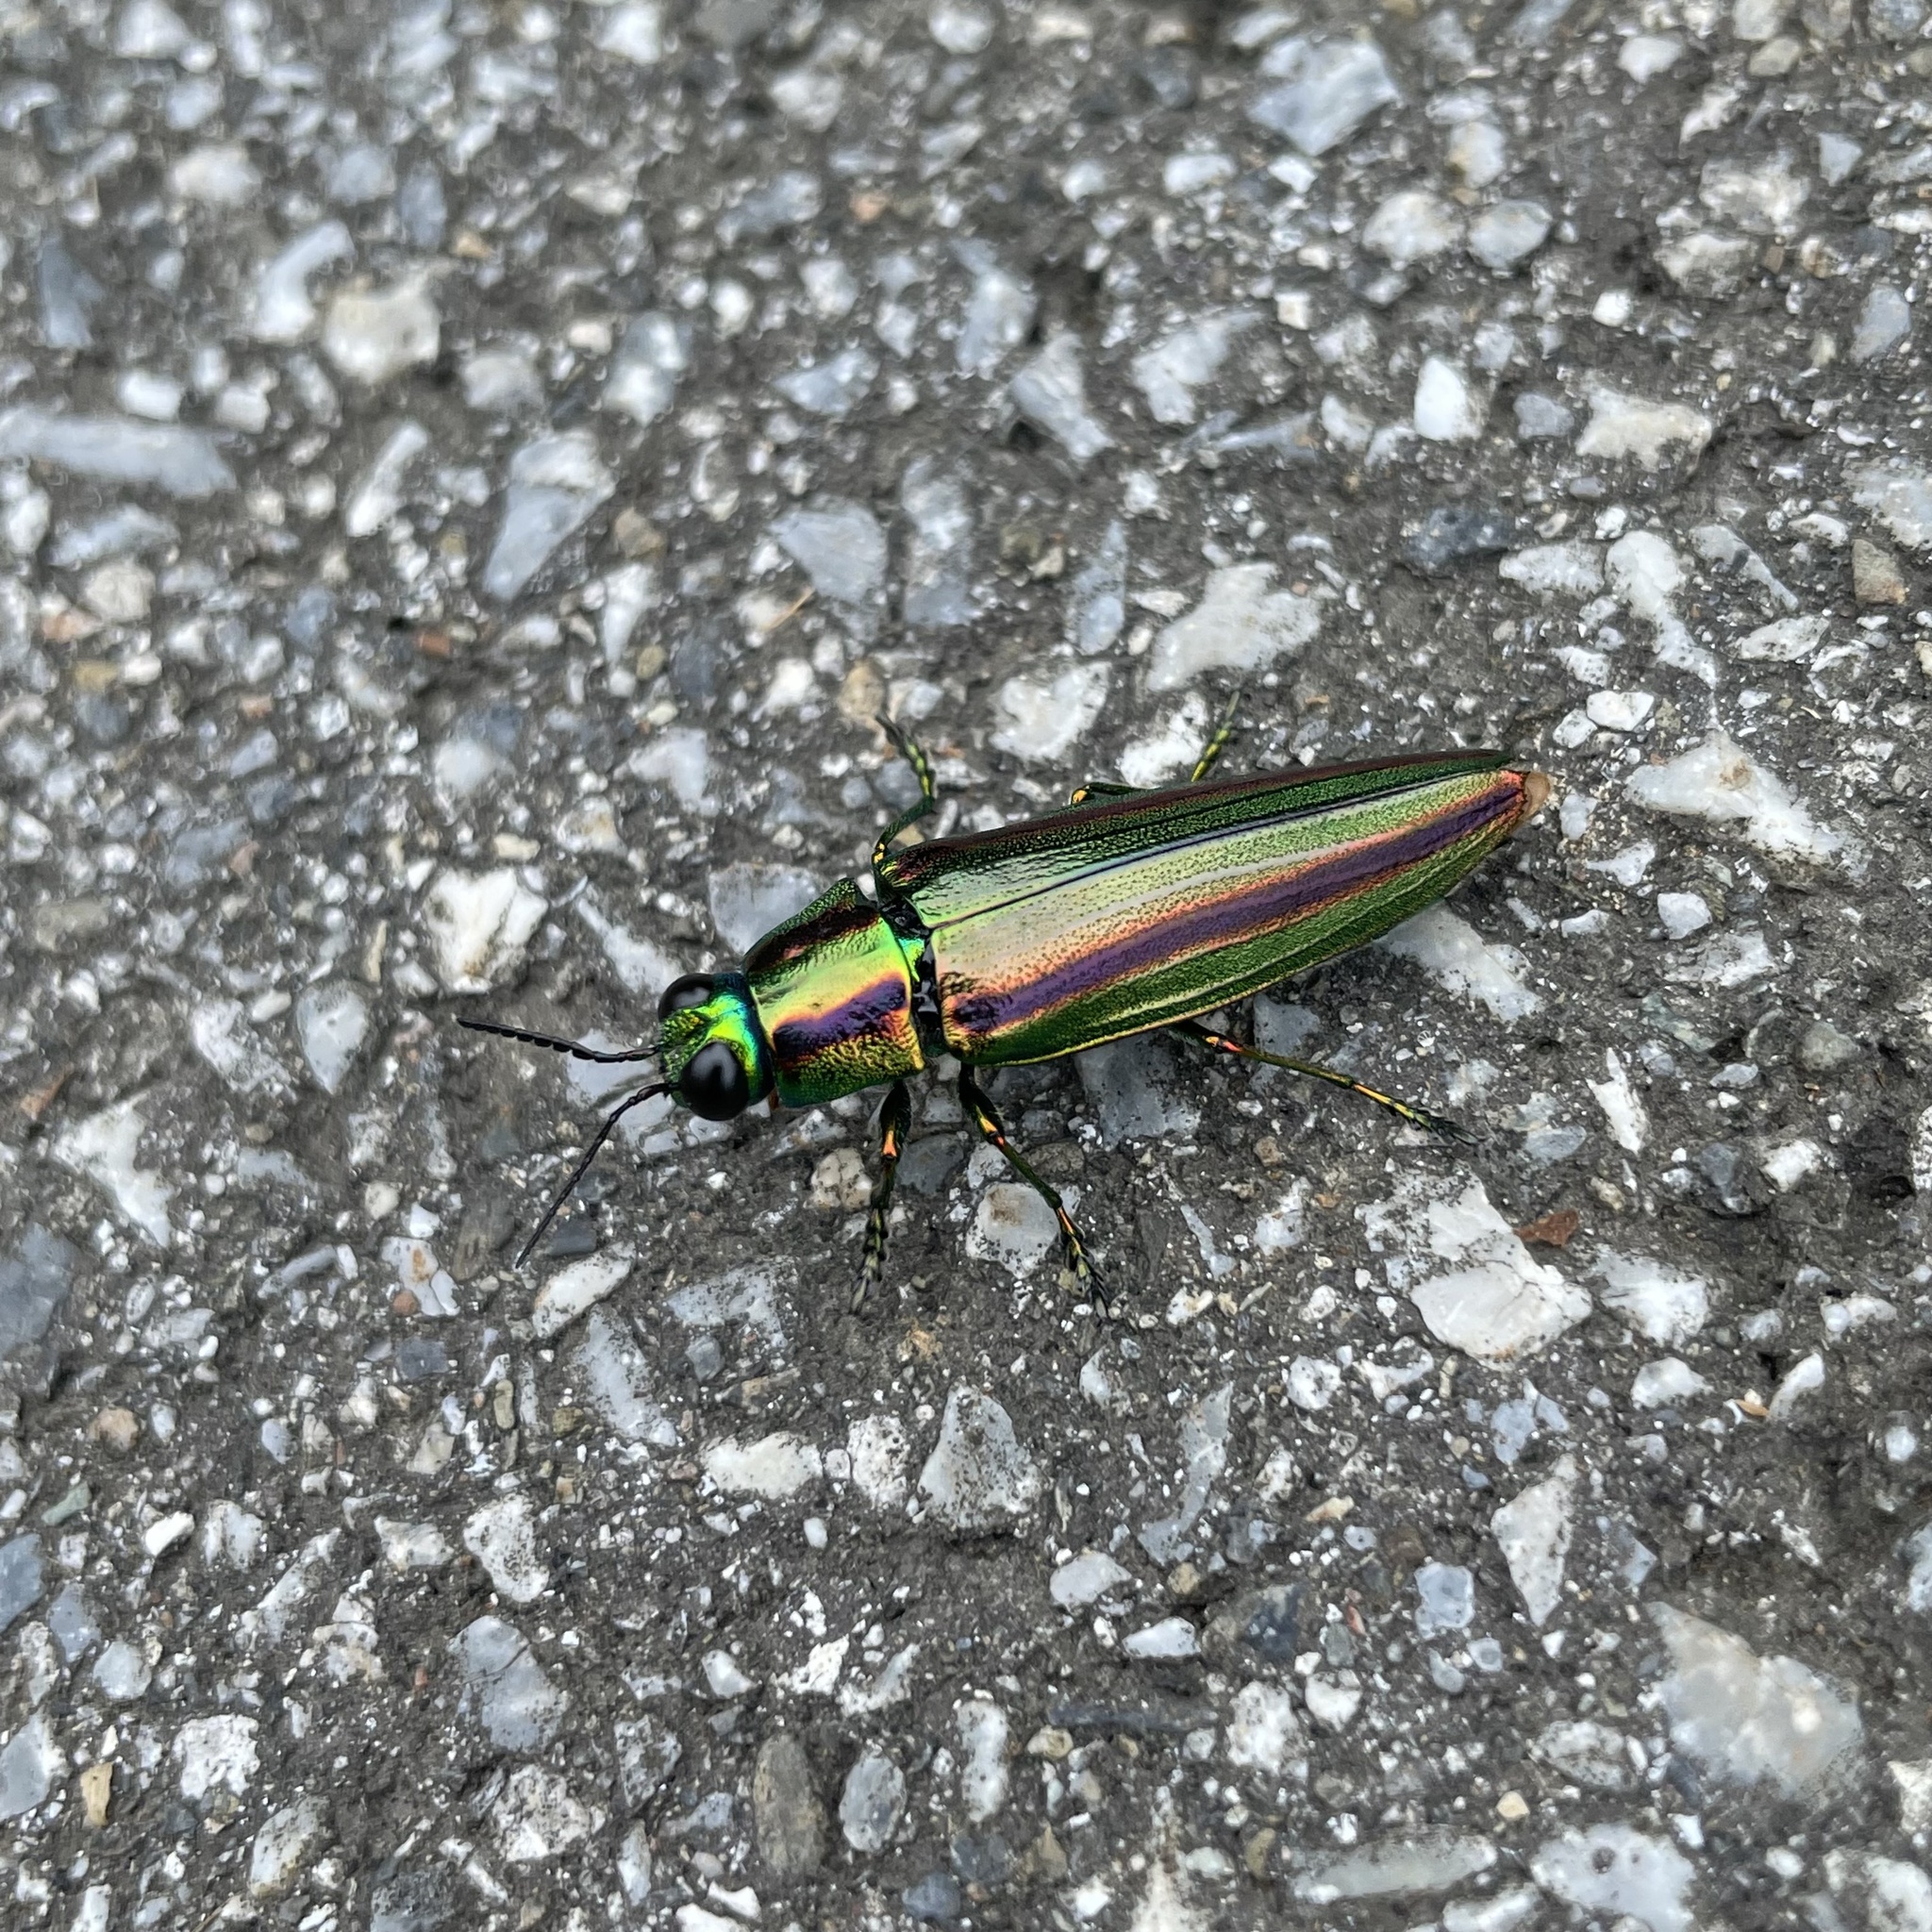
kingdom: Animalia
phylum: Arthropoda
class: Insecta
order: Coleoptera
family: Buprestidae
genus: Chrysochroa
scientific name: Chrysochroa alternans
